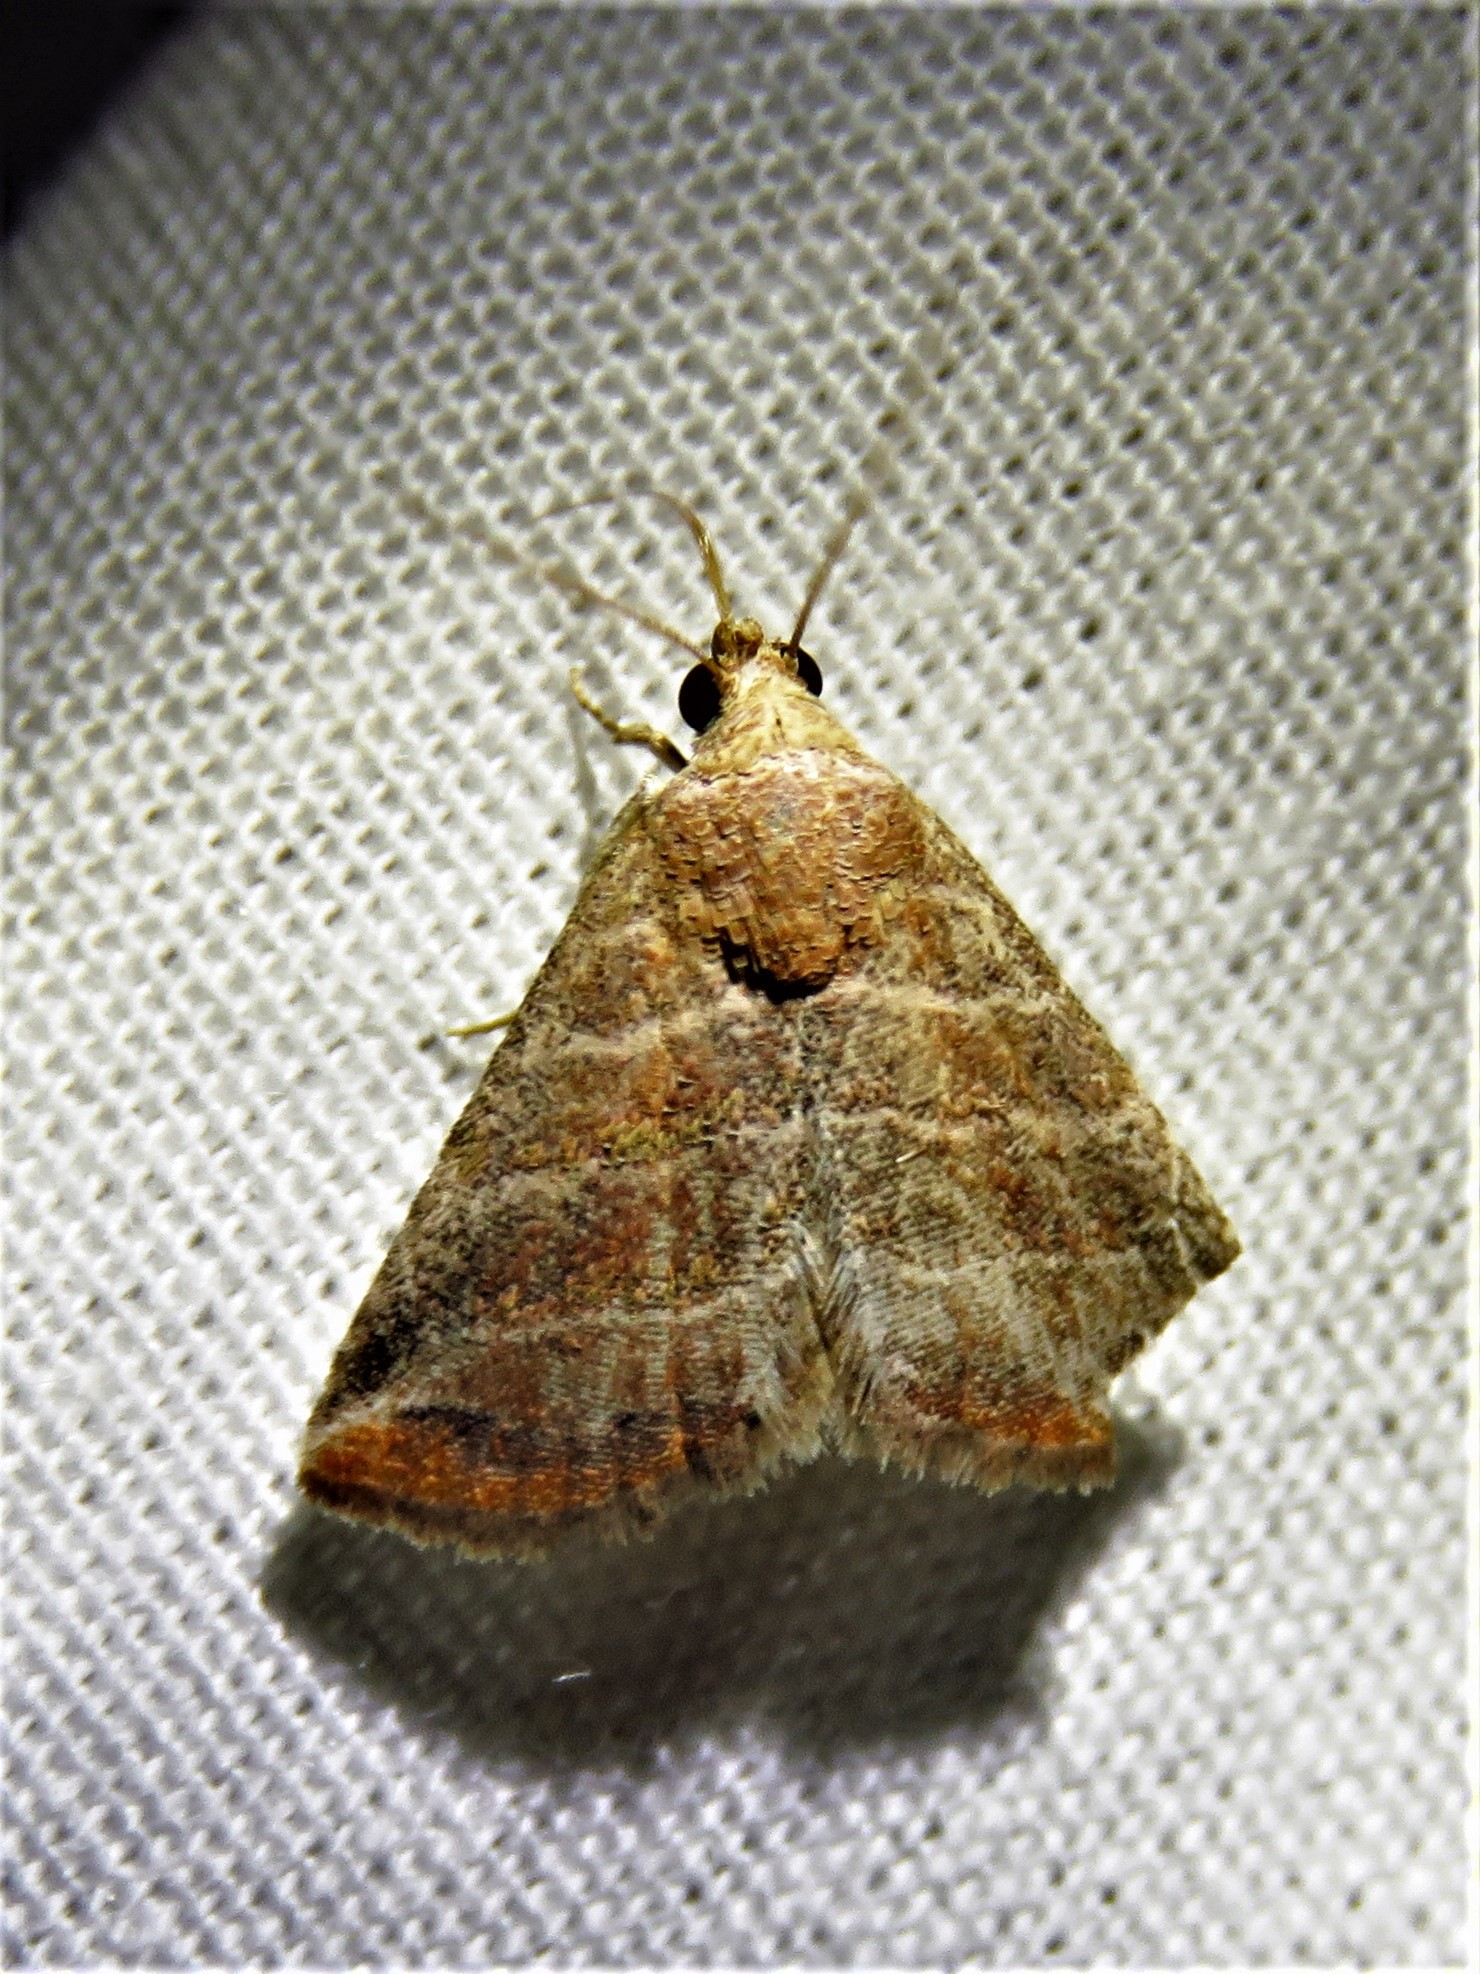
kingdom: Animalia
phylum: Arthropoda
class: Insecta
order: Lepidoptera
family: Noctuidae
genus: Eublemma
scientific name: Eublemma baccatrix
